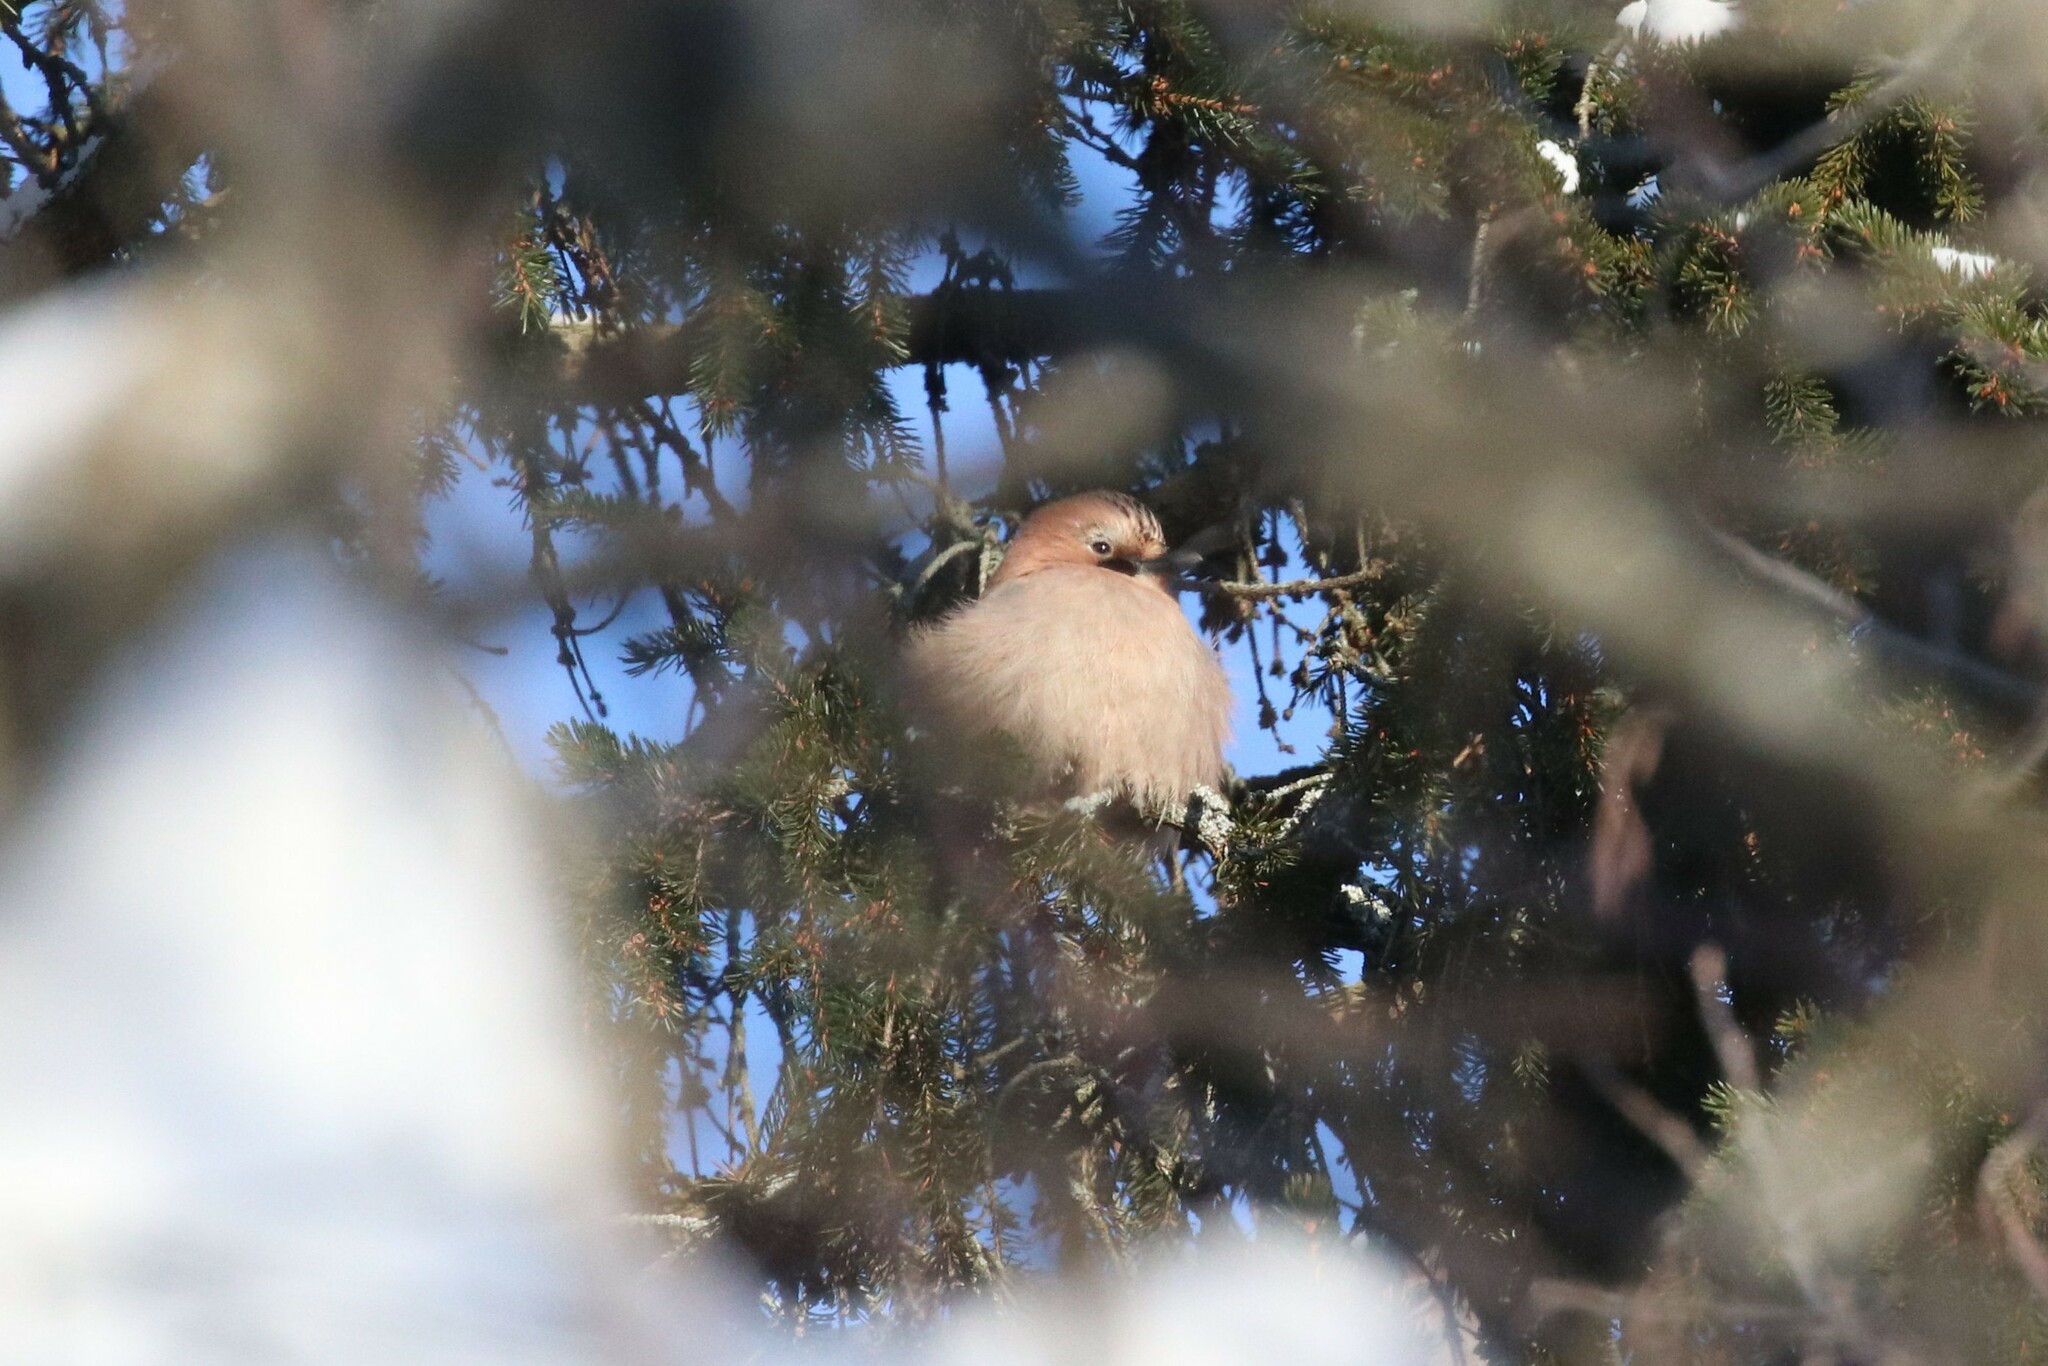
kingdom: Animalia
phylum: Chordata
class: Aves
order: Passeriformes
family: Corvidae
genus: Garrulus
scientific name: Garrulus glandarius
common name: Eurasian jay
